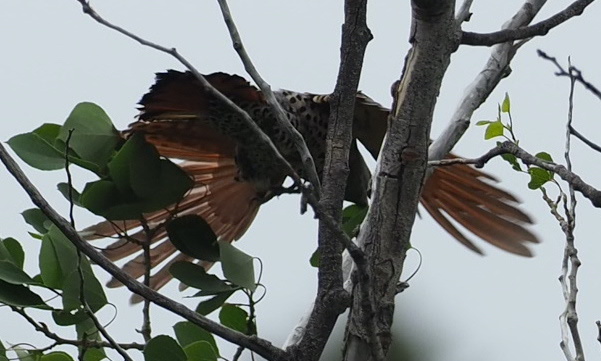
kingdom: Animalia
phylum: Chordata
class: Aves
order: Piciformes
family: Picidae
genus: Colaptes
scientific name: Colaptes auratus
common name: Northern flicker
